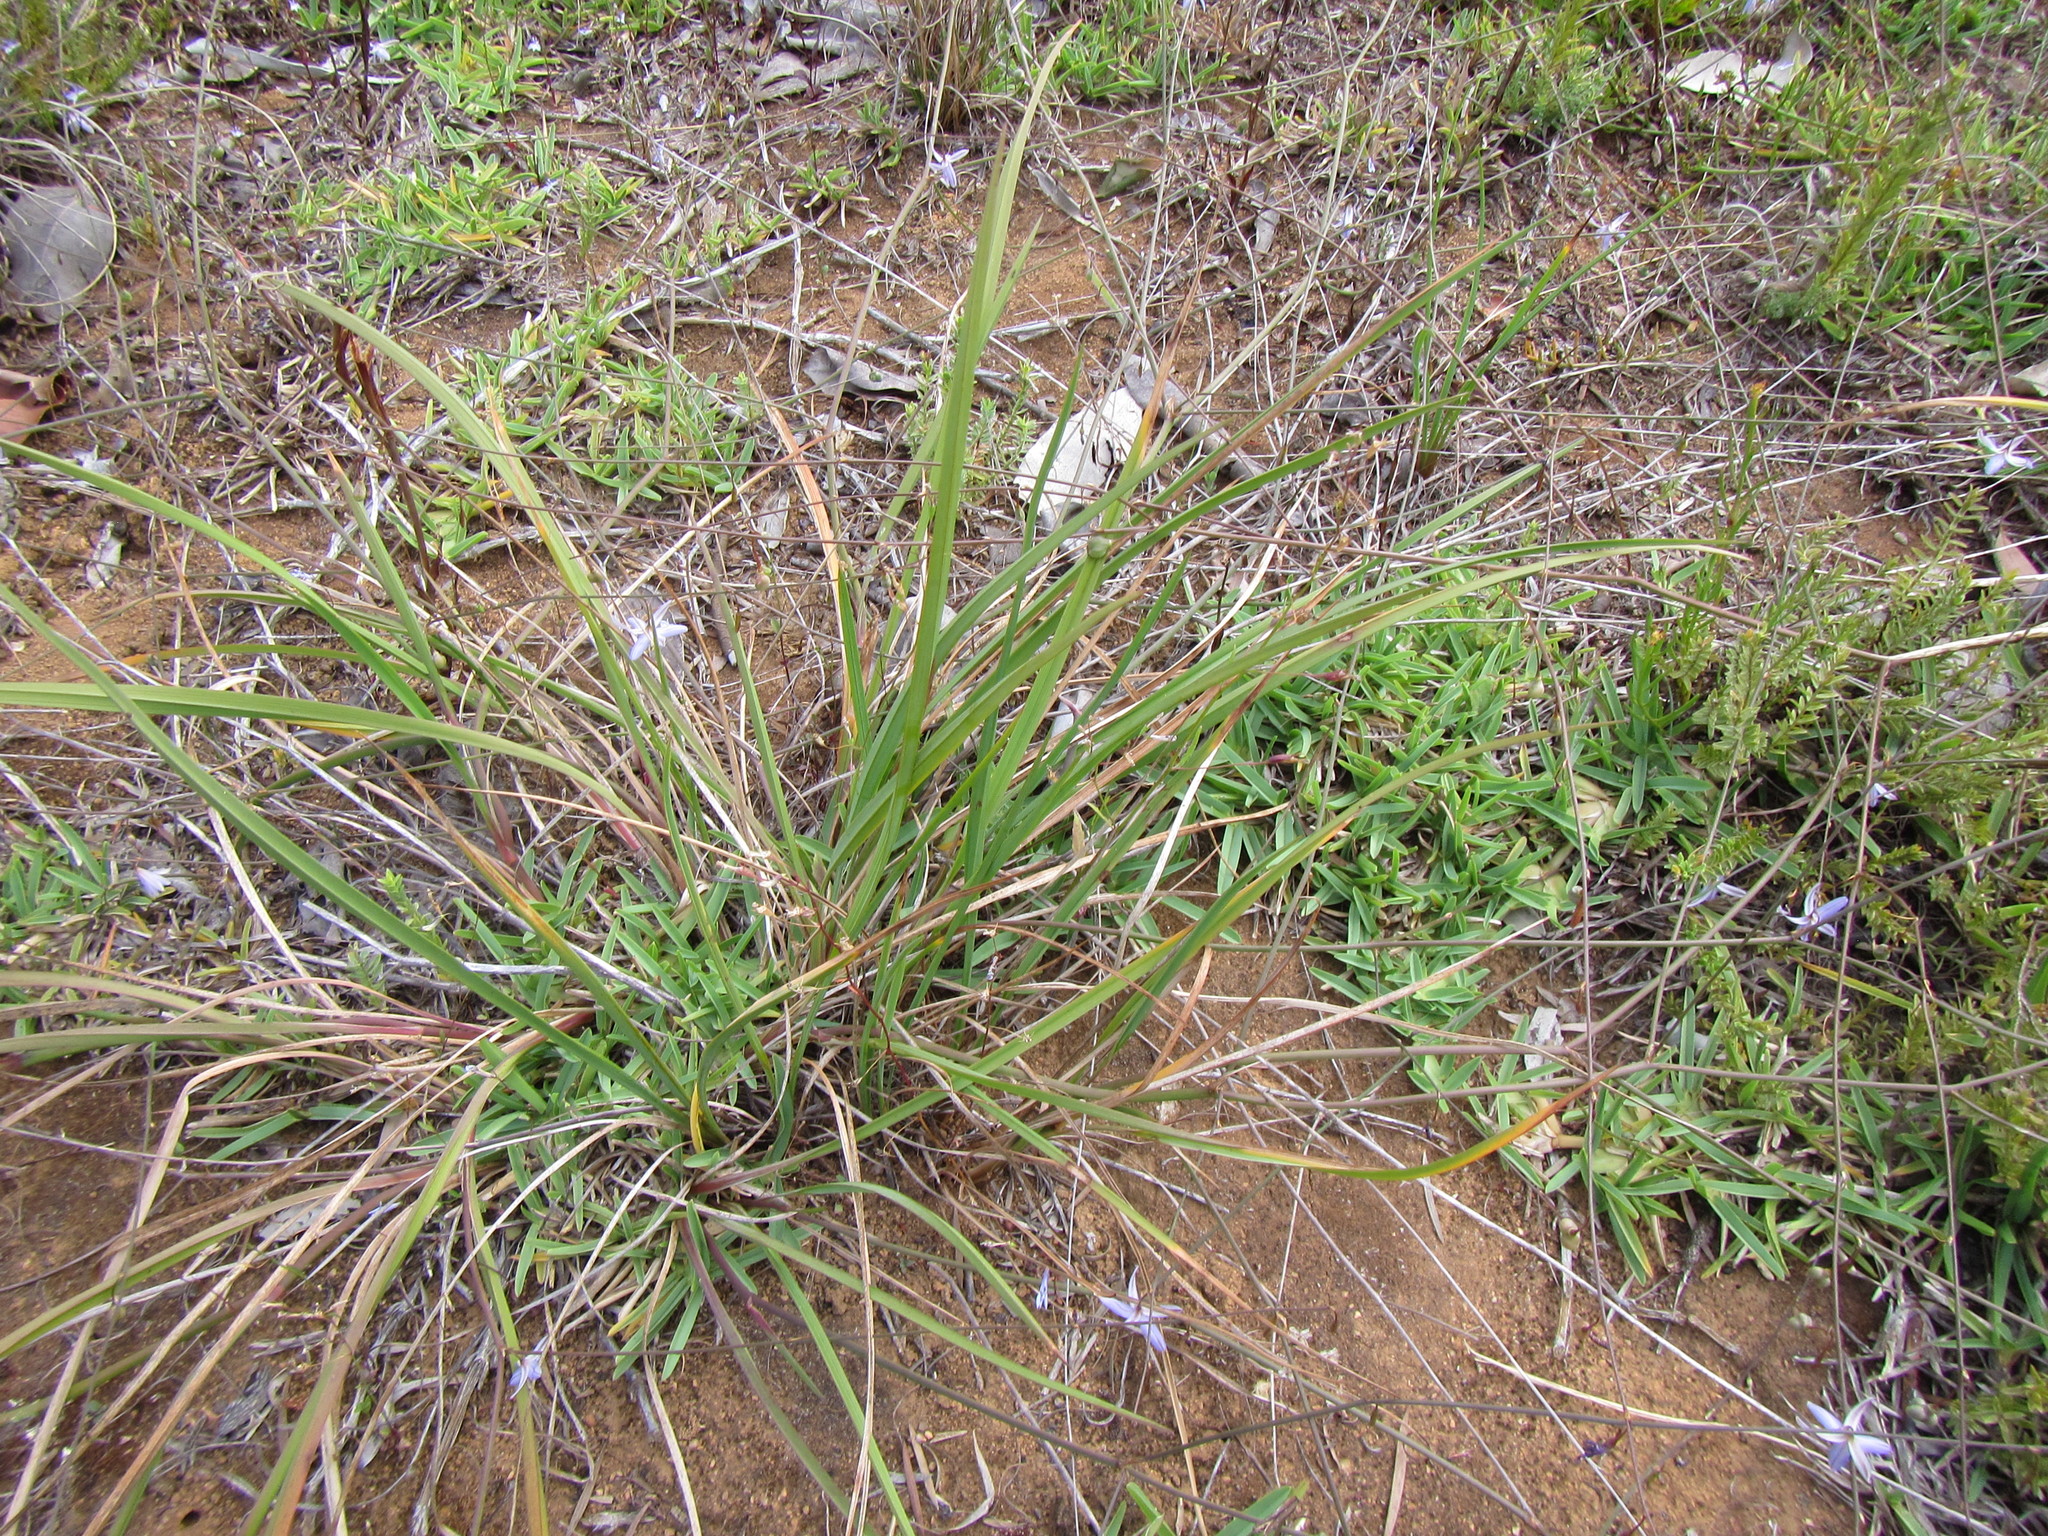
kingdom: Plantae
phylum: Tracheophyta
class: Liliopsida
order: Asparagales
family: Asphodelaceae
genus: Caesia
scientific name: Caesia contorta
